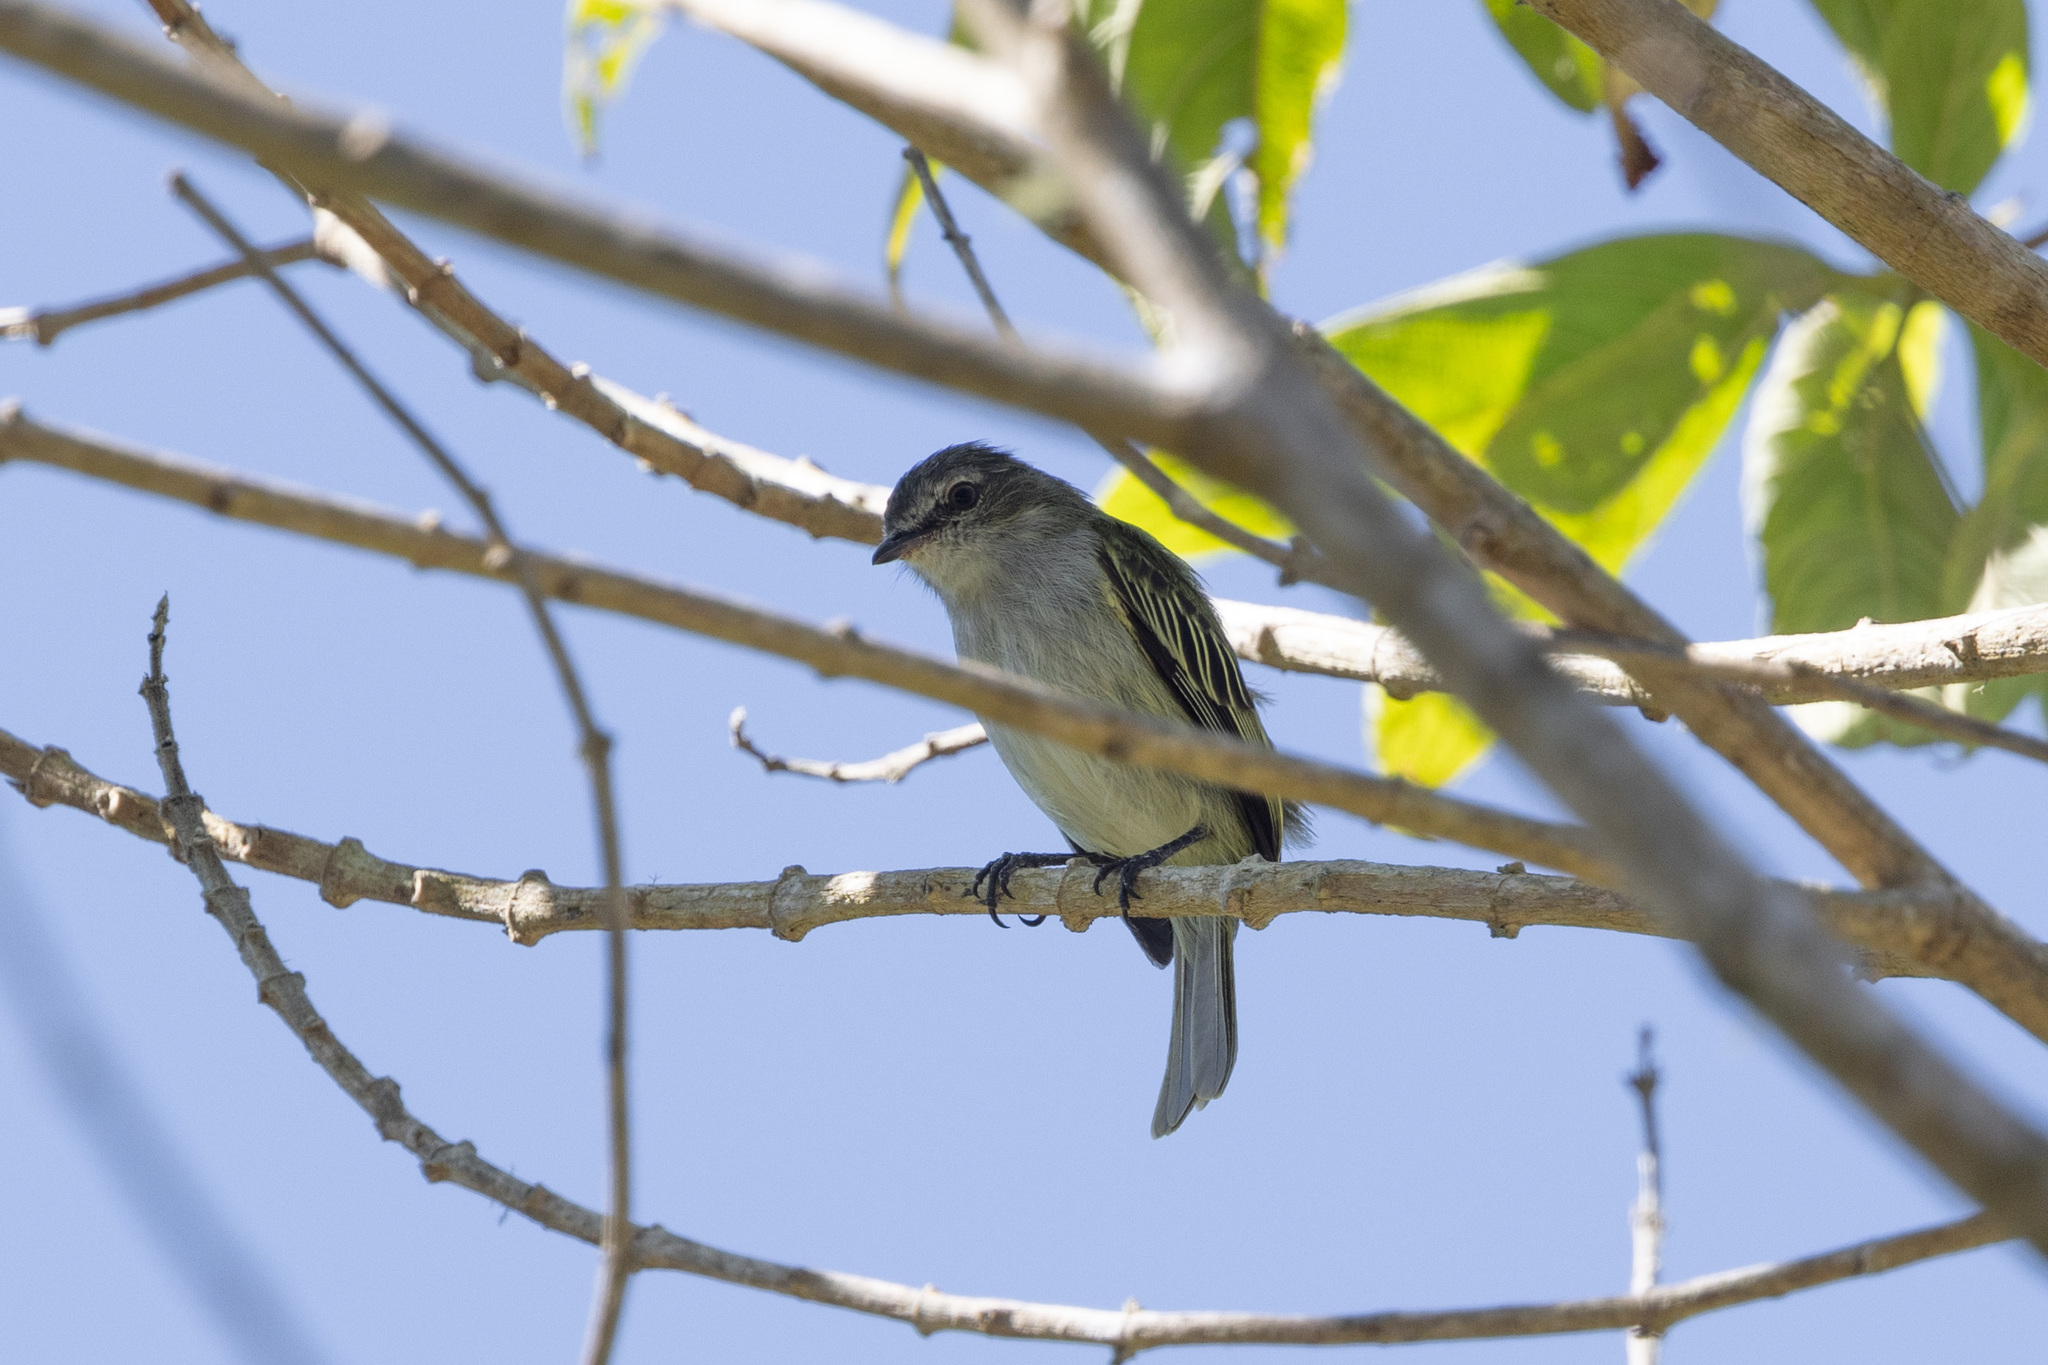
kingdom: Animalia
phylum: Chordata
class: Aves
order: Passeriformes
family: Tyrannidae
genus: Zimmerius
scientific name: Zimmerius vilissimus
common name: Paltry tyrannulet
